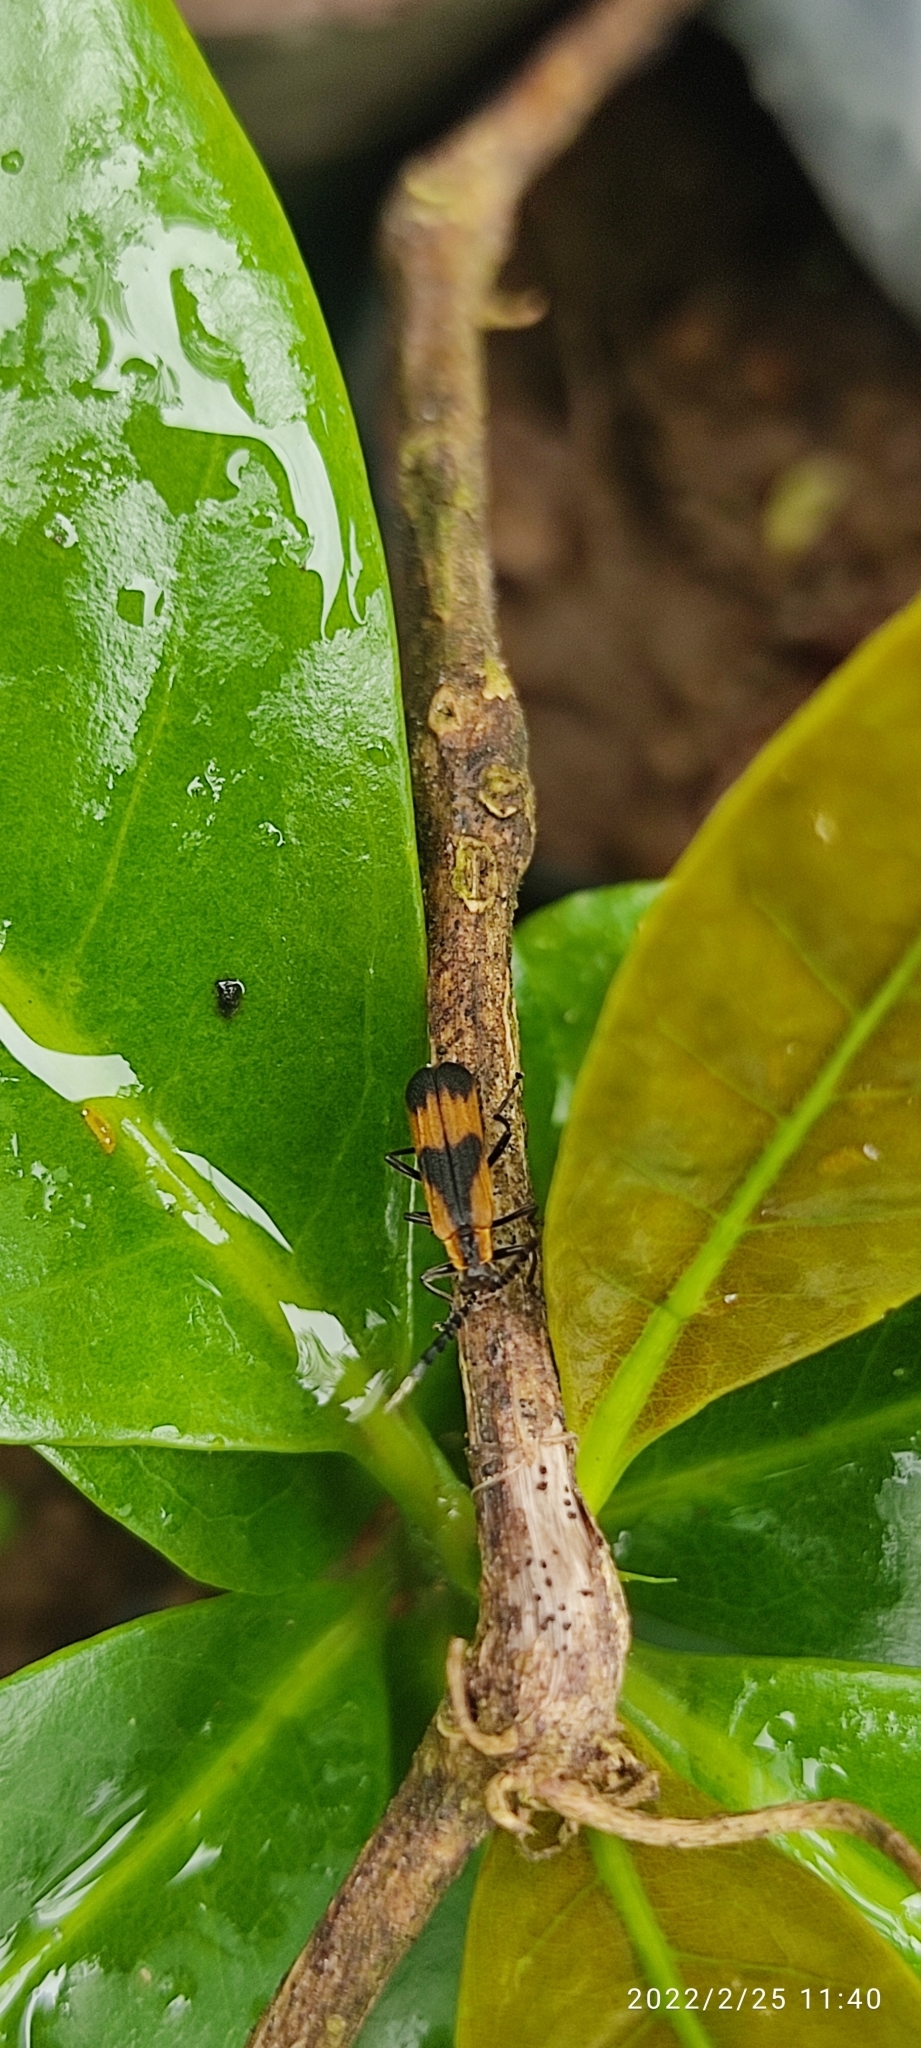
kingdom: Animalia
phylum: Arthropoda
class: Insecta
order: Coleoptera
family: Cantharidae
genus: Microdaiphron
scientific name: Microdaiphron
